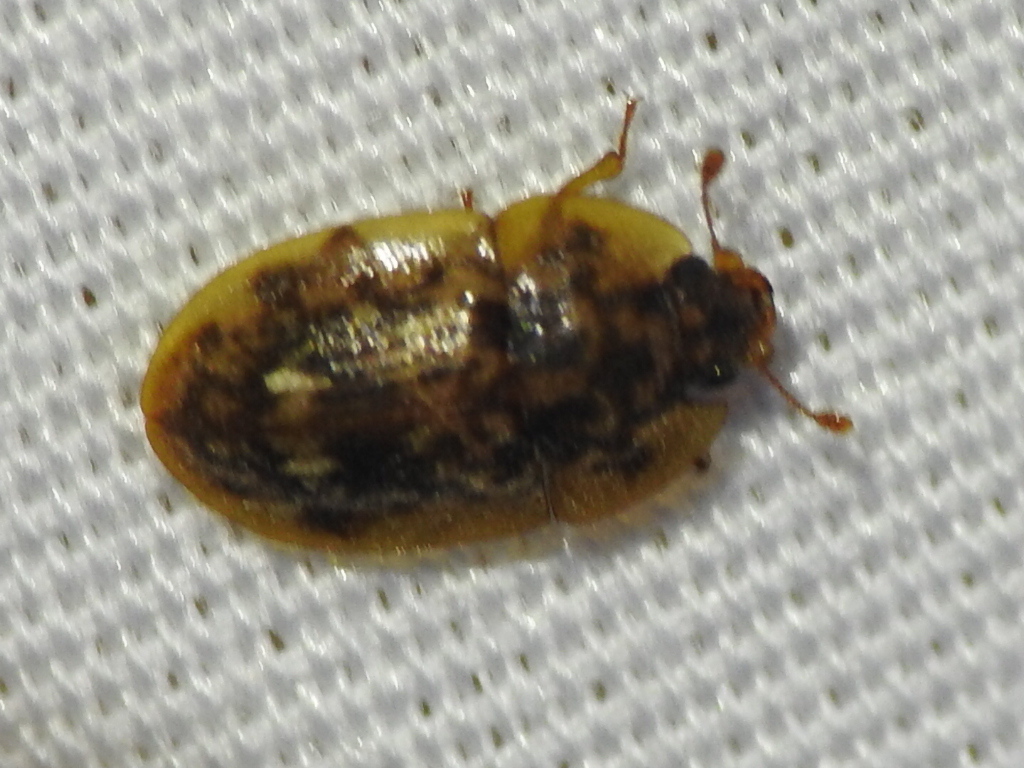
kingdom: Animalia
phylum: Arthropoda
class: Insecta
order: Coleoptera
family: Nitidulidae
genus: Lobiopa
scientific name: Lobiopa undulata
